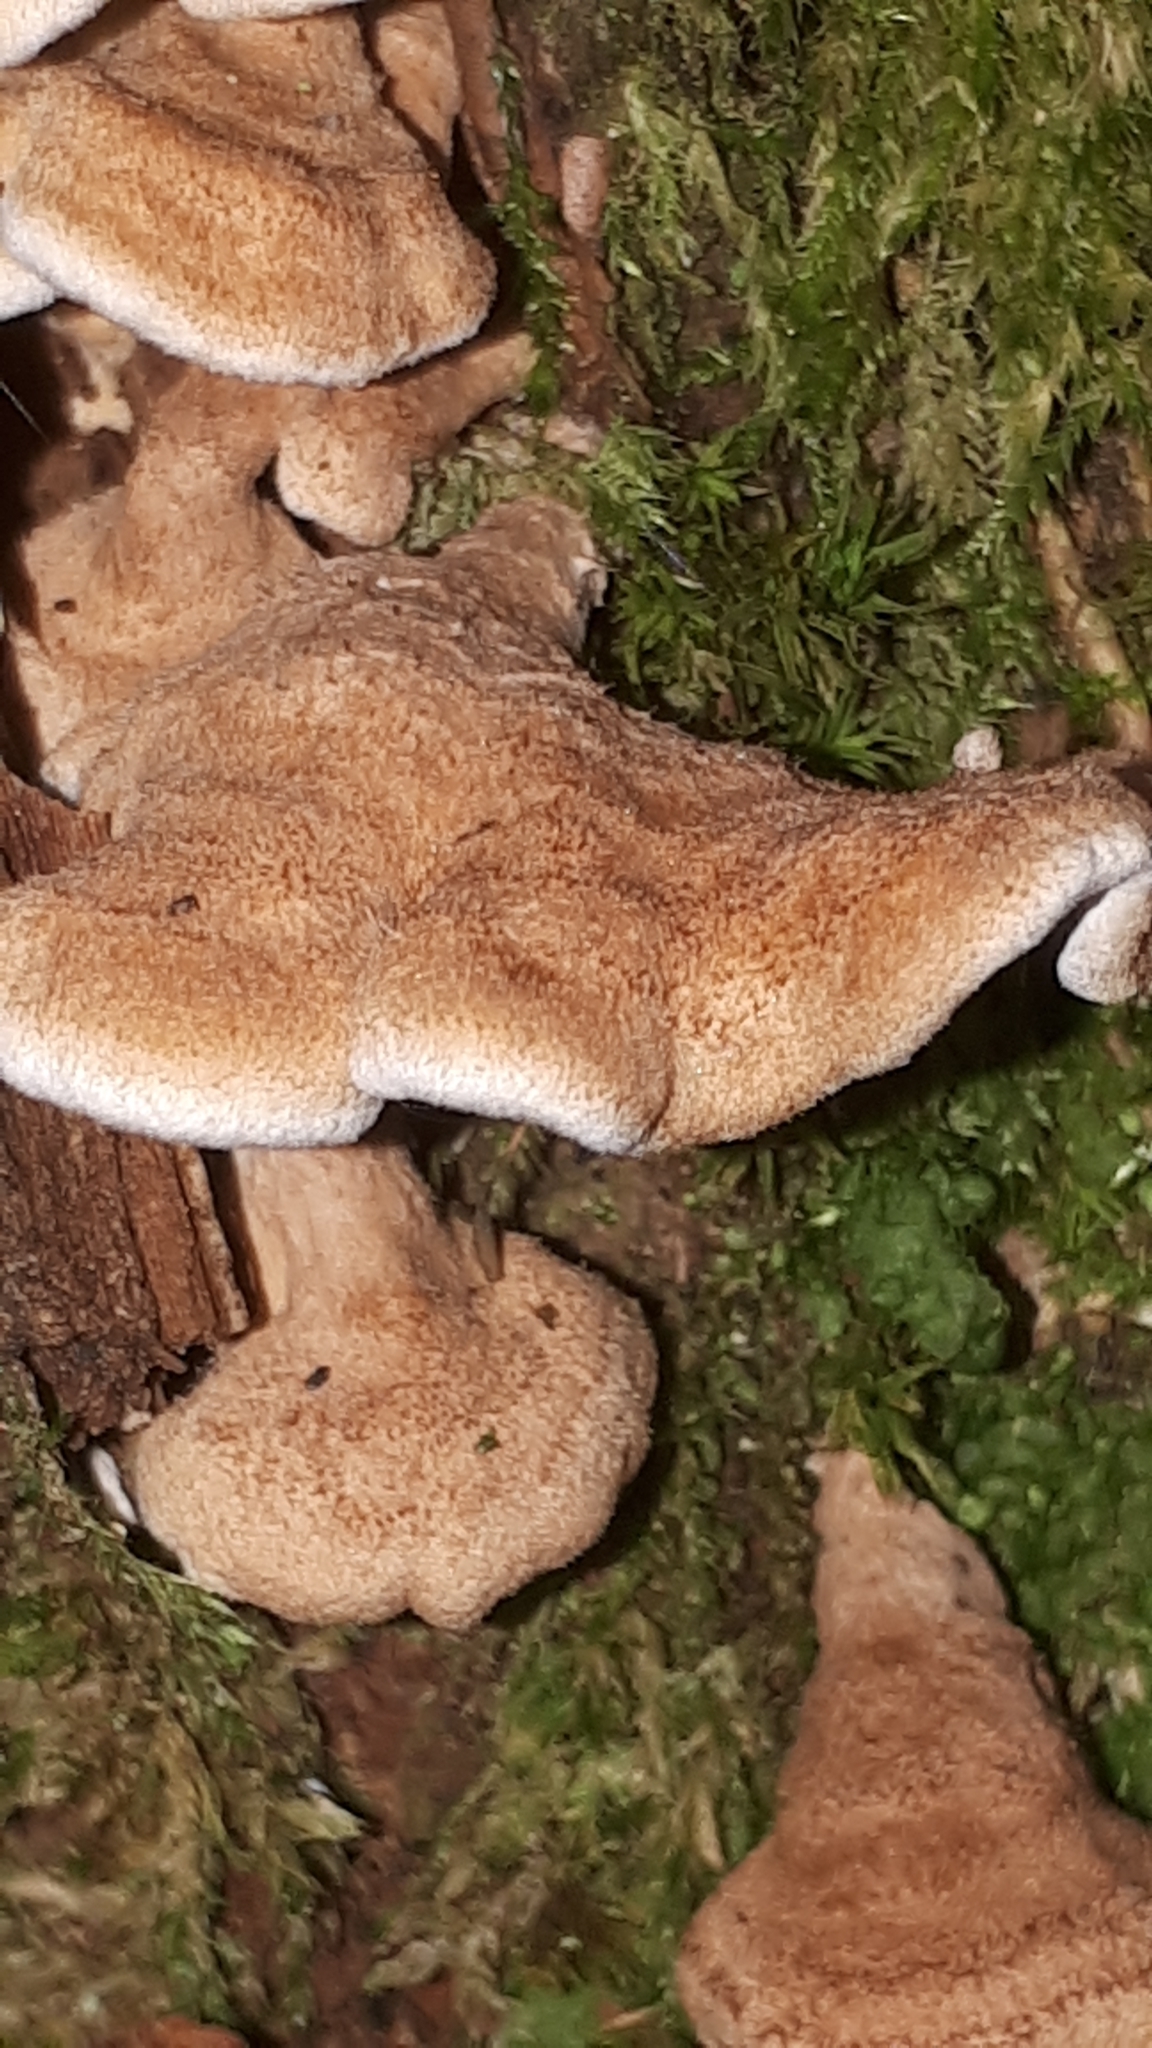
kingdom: Fungi
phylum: Basidiomycota
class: Agaricomycetes
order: Amylocorticiales
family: Amylocorticiaceae
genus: Plicaturopsis
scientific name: Plicaturopsis crispa
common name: Crimped gill
